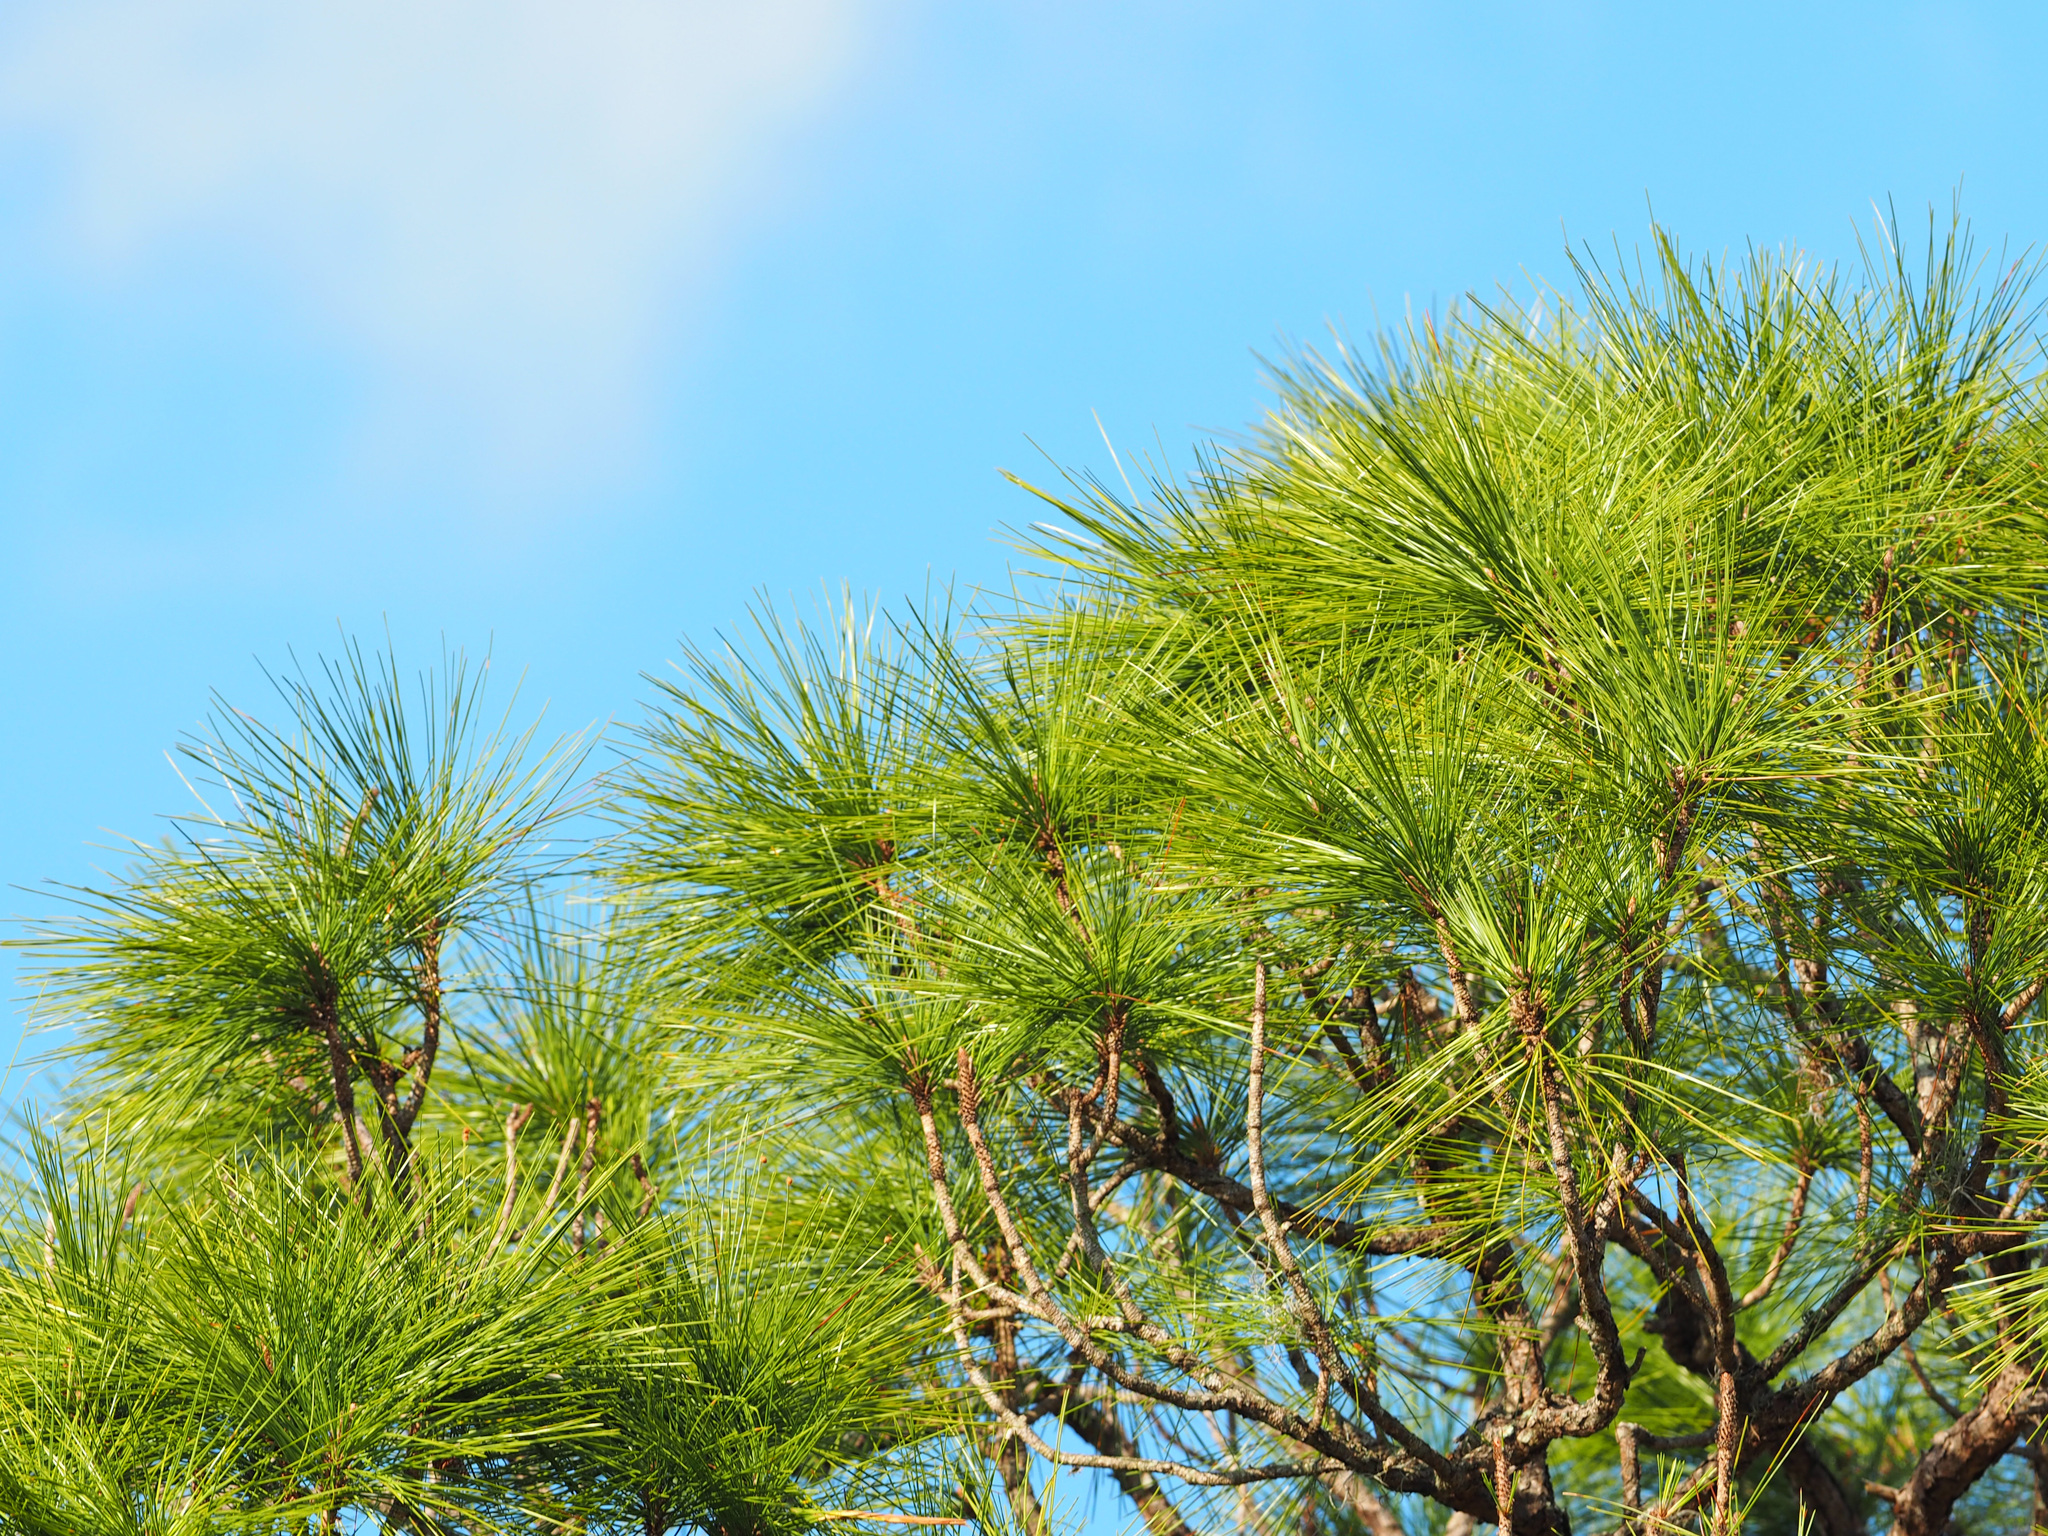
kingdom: Plantae
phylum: Tracheophyta
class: Pinopsida
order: Pinales
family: Pinaceae
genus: Pinus
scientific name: Pinus elliottii
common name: Slash pine
